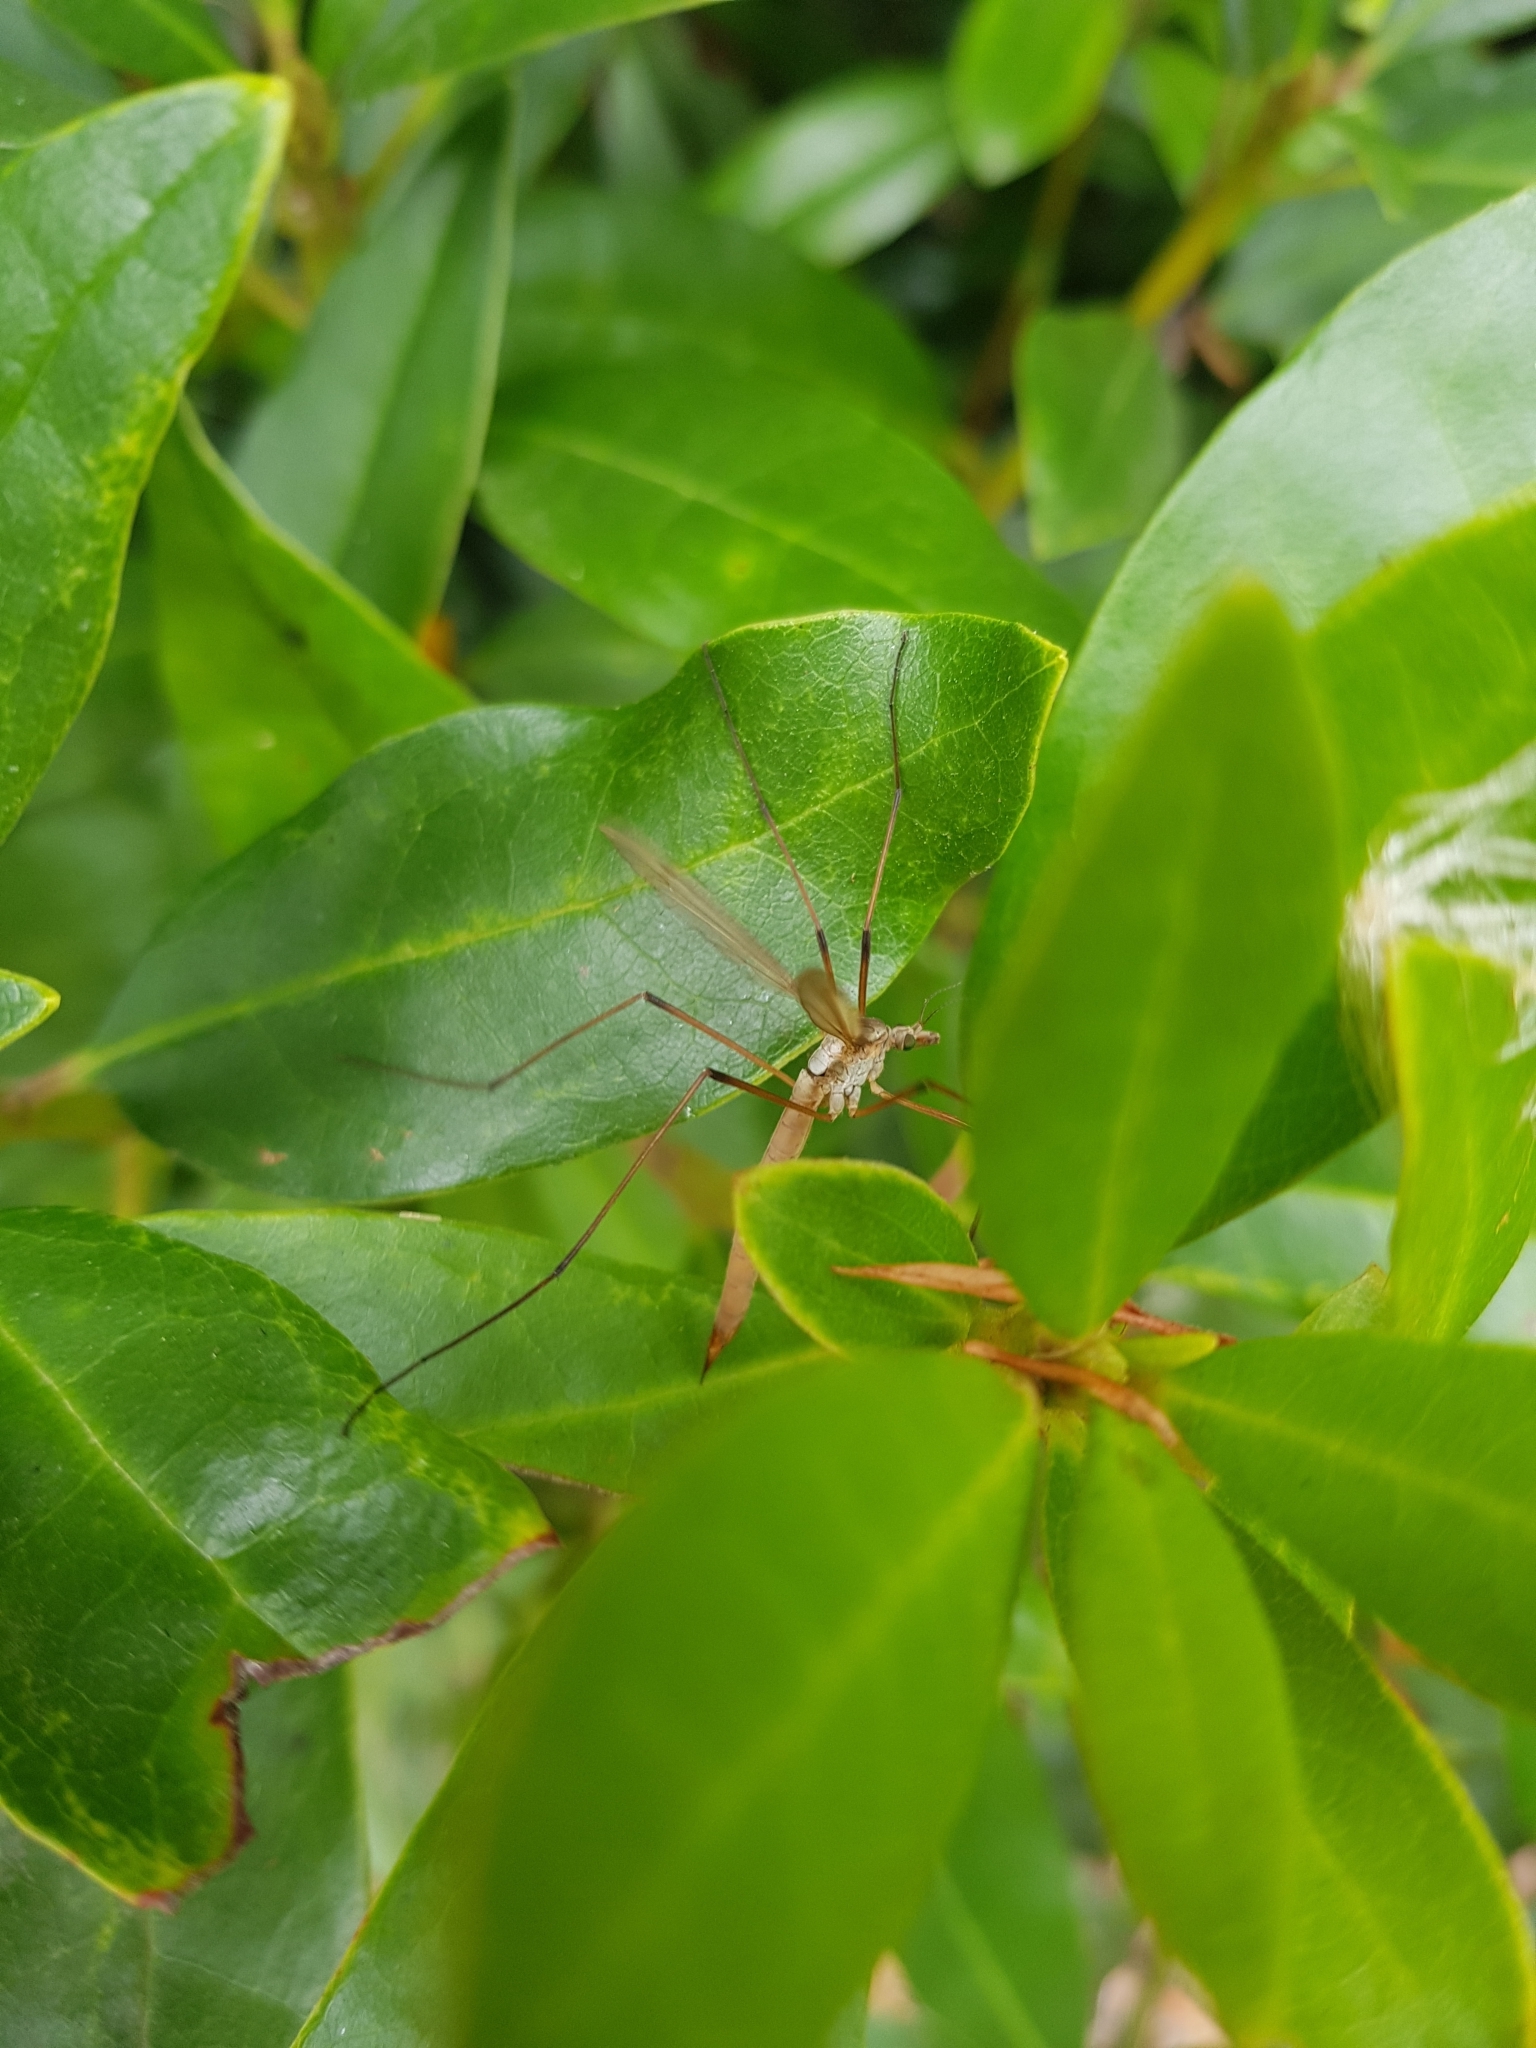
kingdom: Animalia
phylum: Arthropoda
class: Insecta
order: Diptera
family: Tipulidae
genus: Tipula
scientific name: Tipula paludosa
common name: European cranefly
